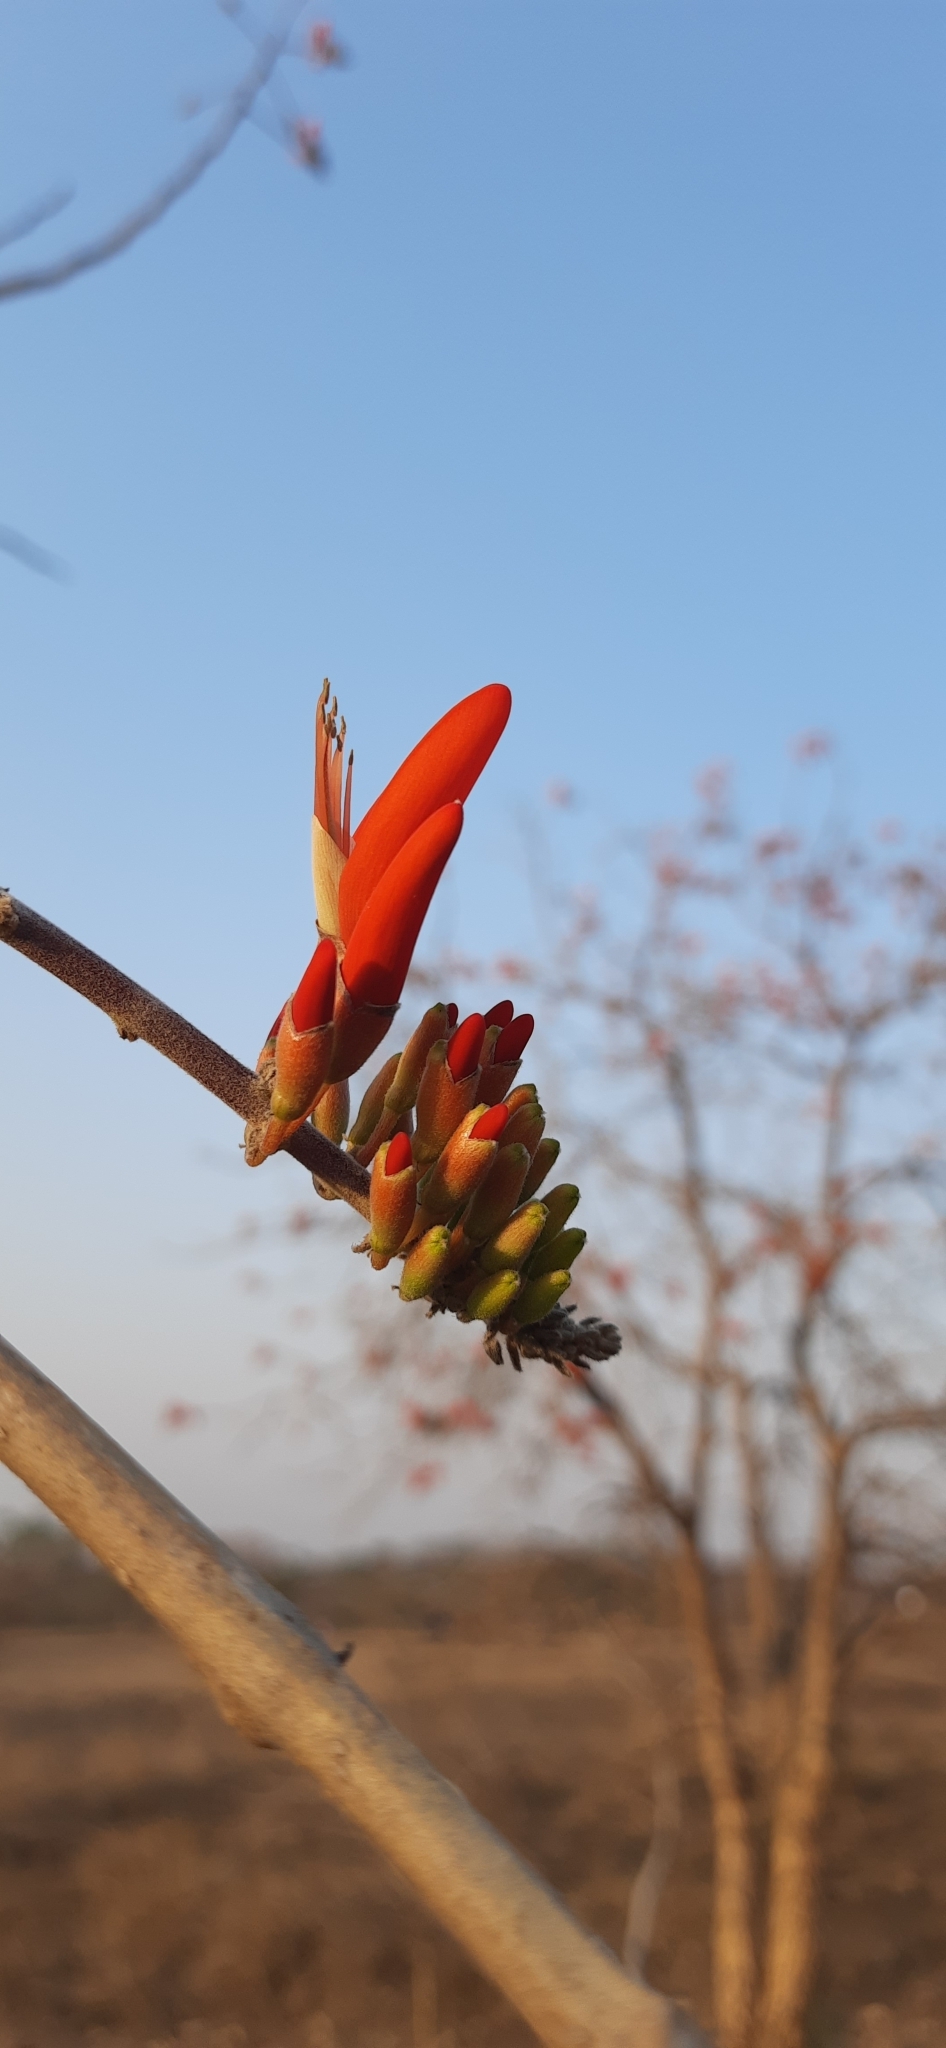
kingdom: Plantae
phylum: Tracheophyta
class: Magnoliopsida
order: Fabales
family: Fabaceae
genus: Erythrina
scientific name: Erythrina suberosa
